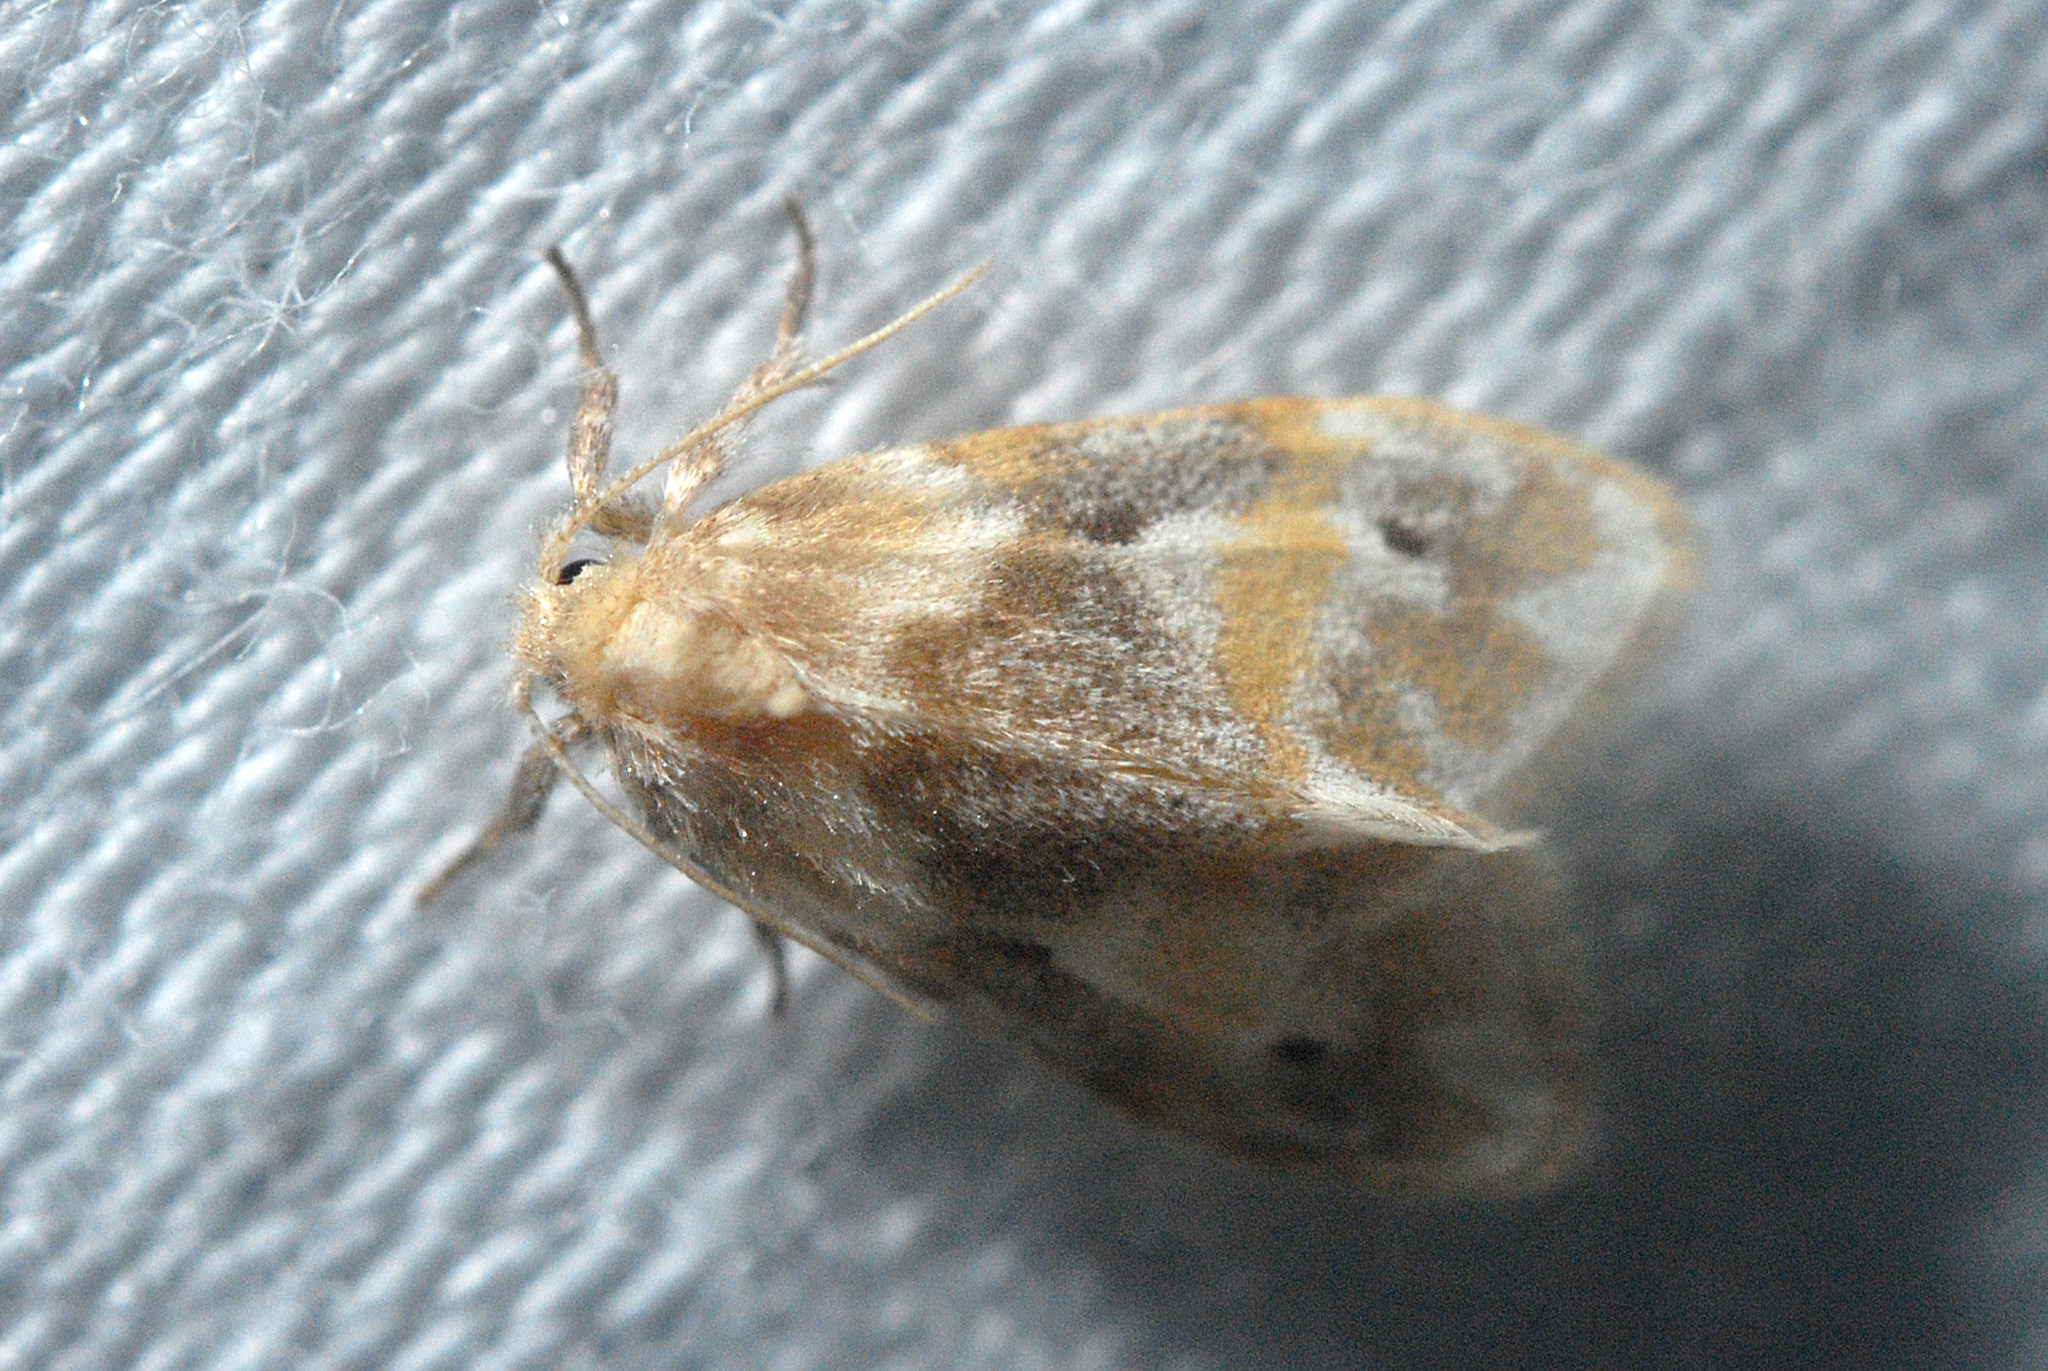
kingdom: Animalia
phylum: Arthropoda
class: Insecta
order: Lepidoptera
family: Erebidae
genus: Schistophleps
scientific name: Schistophleps bipuncta
